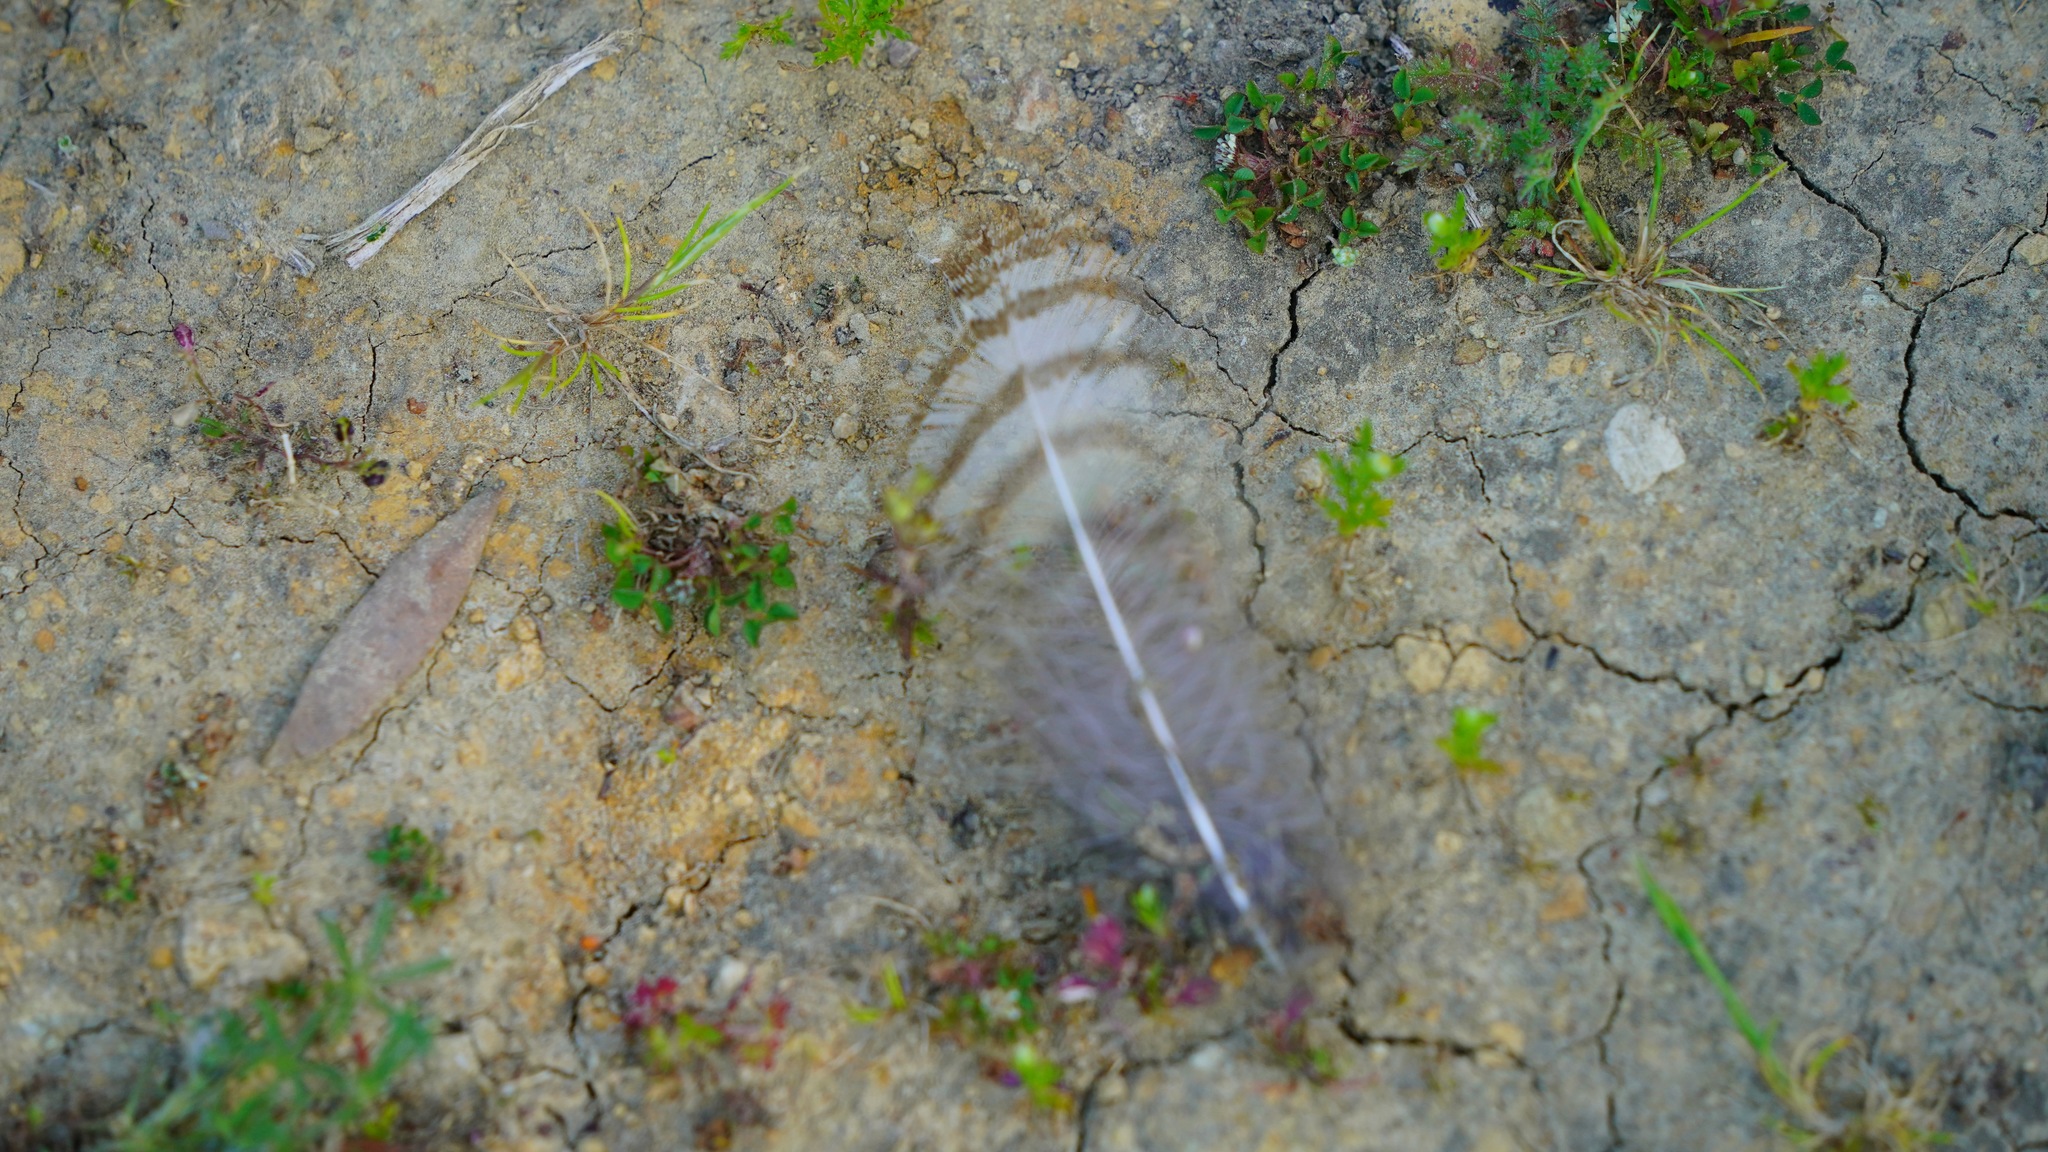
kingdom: Animalia
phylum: Chordata
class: Aves
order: Strigiformes
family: Strigidae
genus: Bubo
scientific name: Bubo virginianus
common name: Great horned owl
